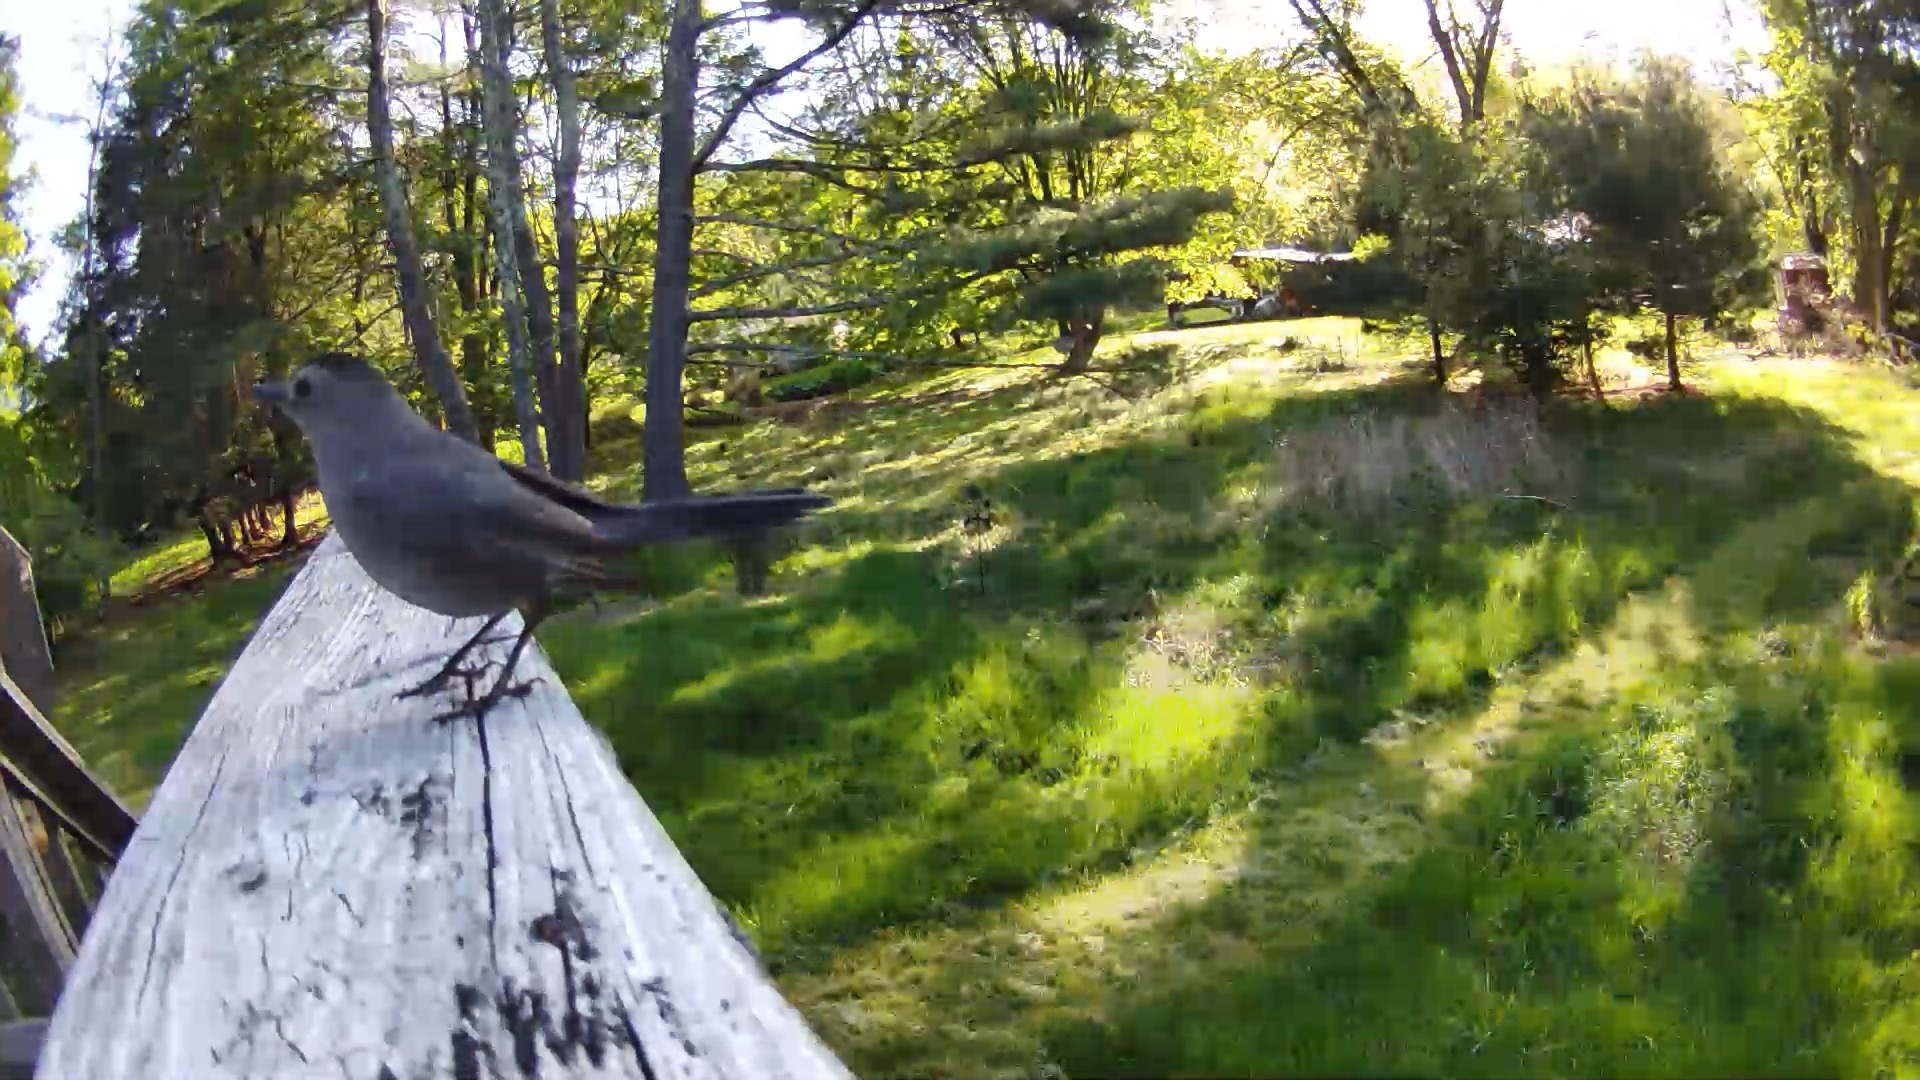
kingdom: Animalia
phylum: Chordata
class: Aves
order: Passeriformes
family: Mimidae
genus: Dumetella
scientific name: Dumetella carolinensis
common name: Gray catbird
